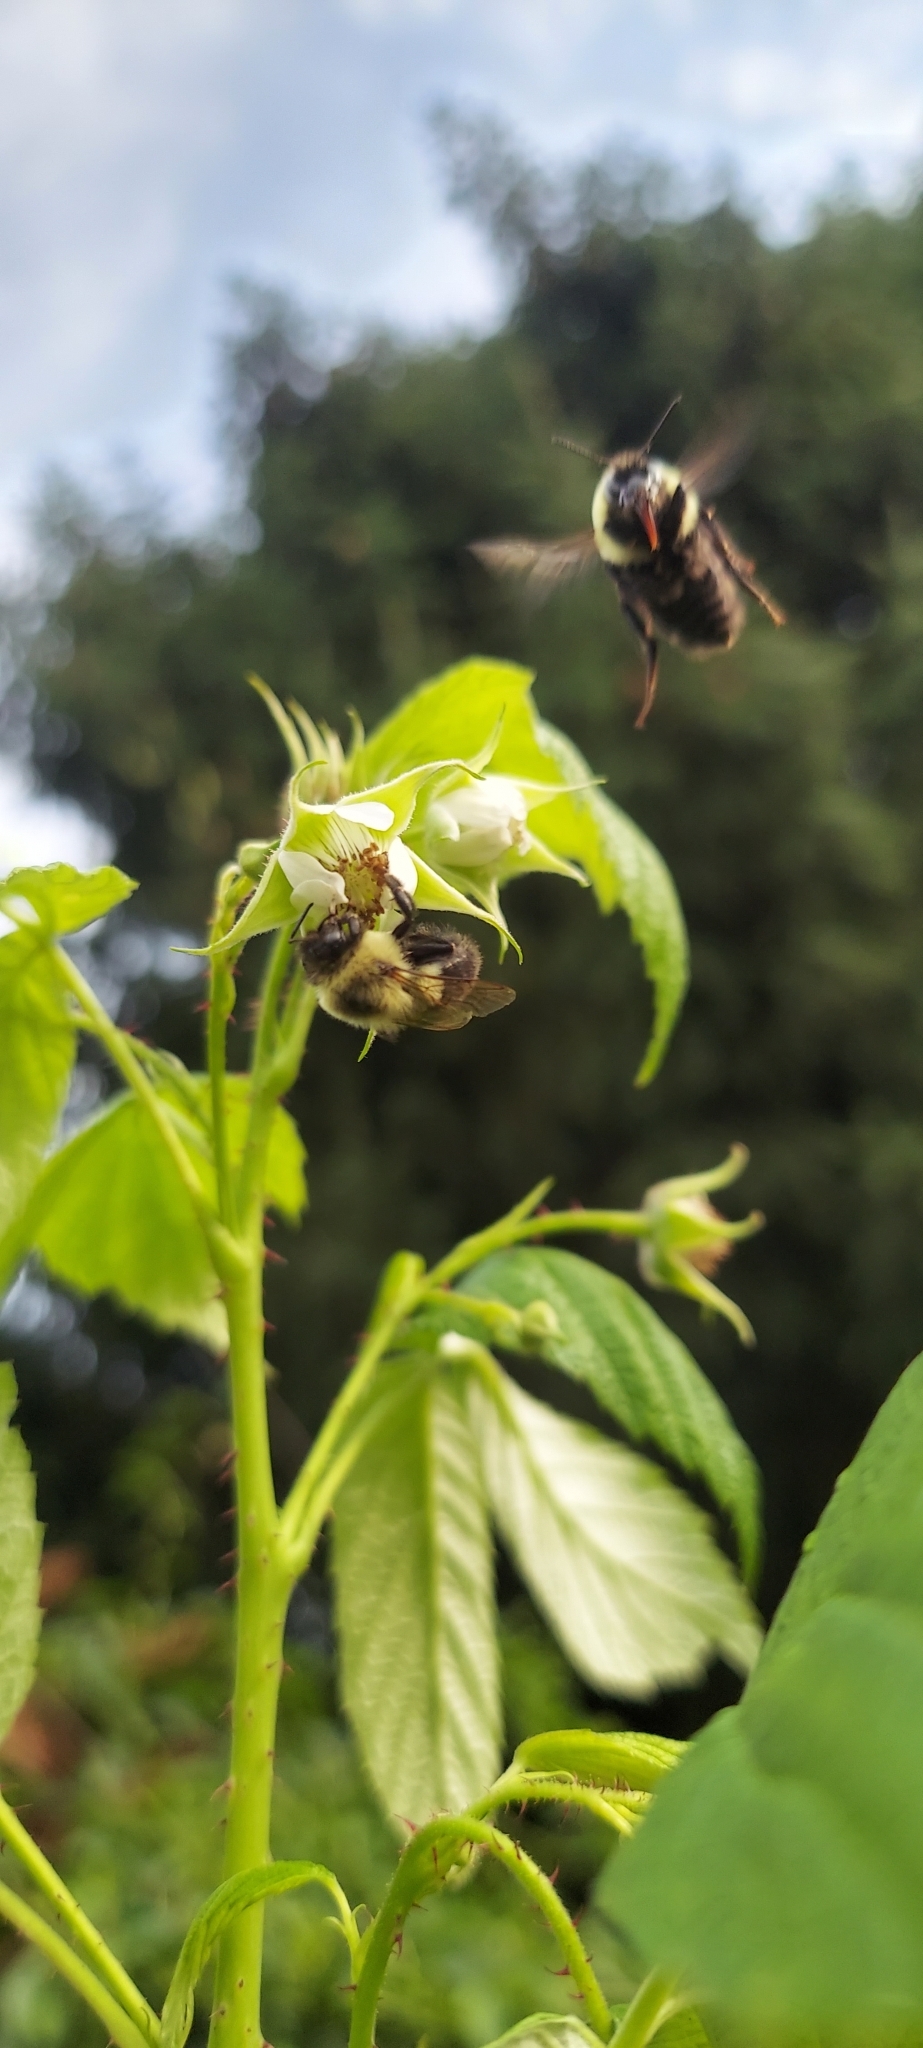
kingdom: Animalia
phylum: Arthropoda
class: Insecta
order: Hymenoptera
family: Apidae
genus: Bombus
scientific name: Bombus impatiens
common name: Common eastern bumble bee
